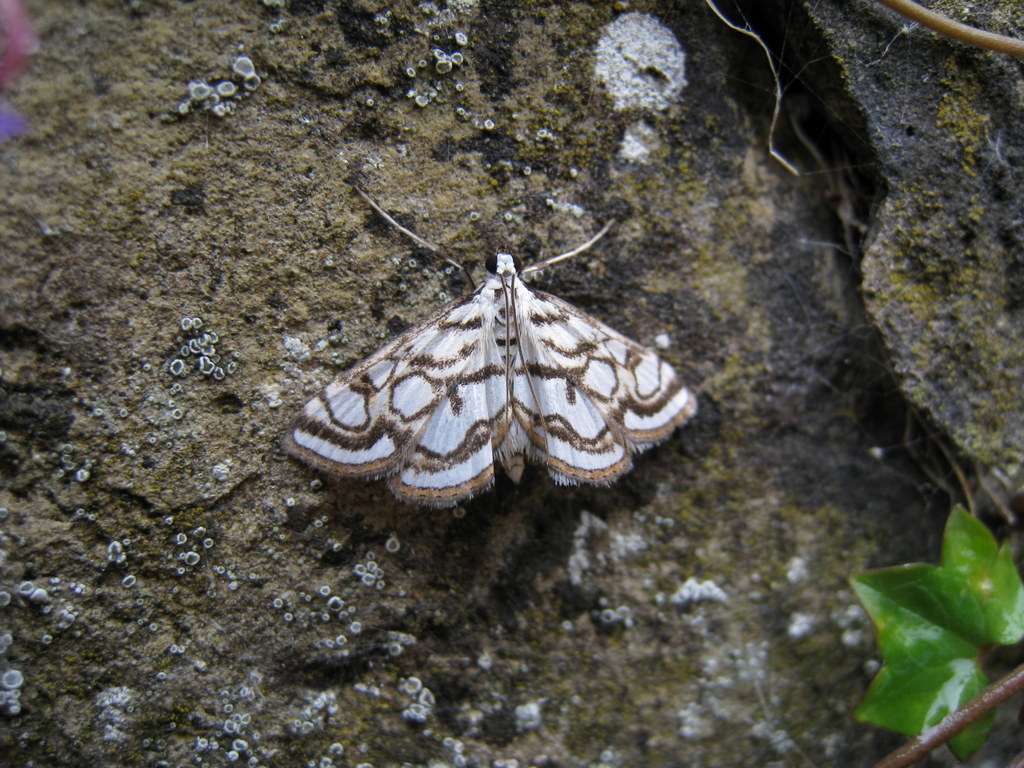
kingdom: Animalia
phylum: Arthropoda
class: Insecta
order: Lepidoptera
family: Crambidae
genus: Nymphula
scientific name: Nymphula nitidulata
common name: Beautiful china mark
